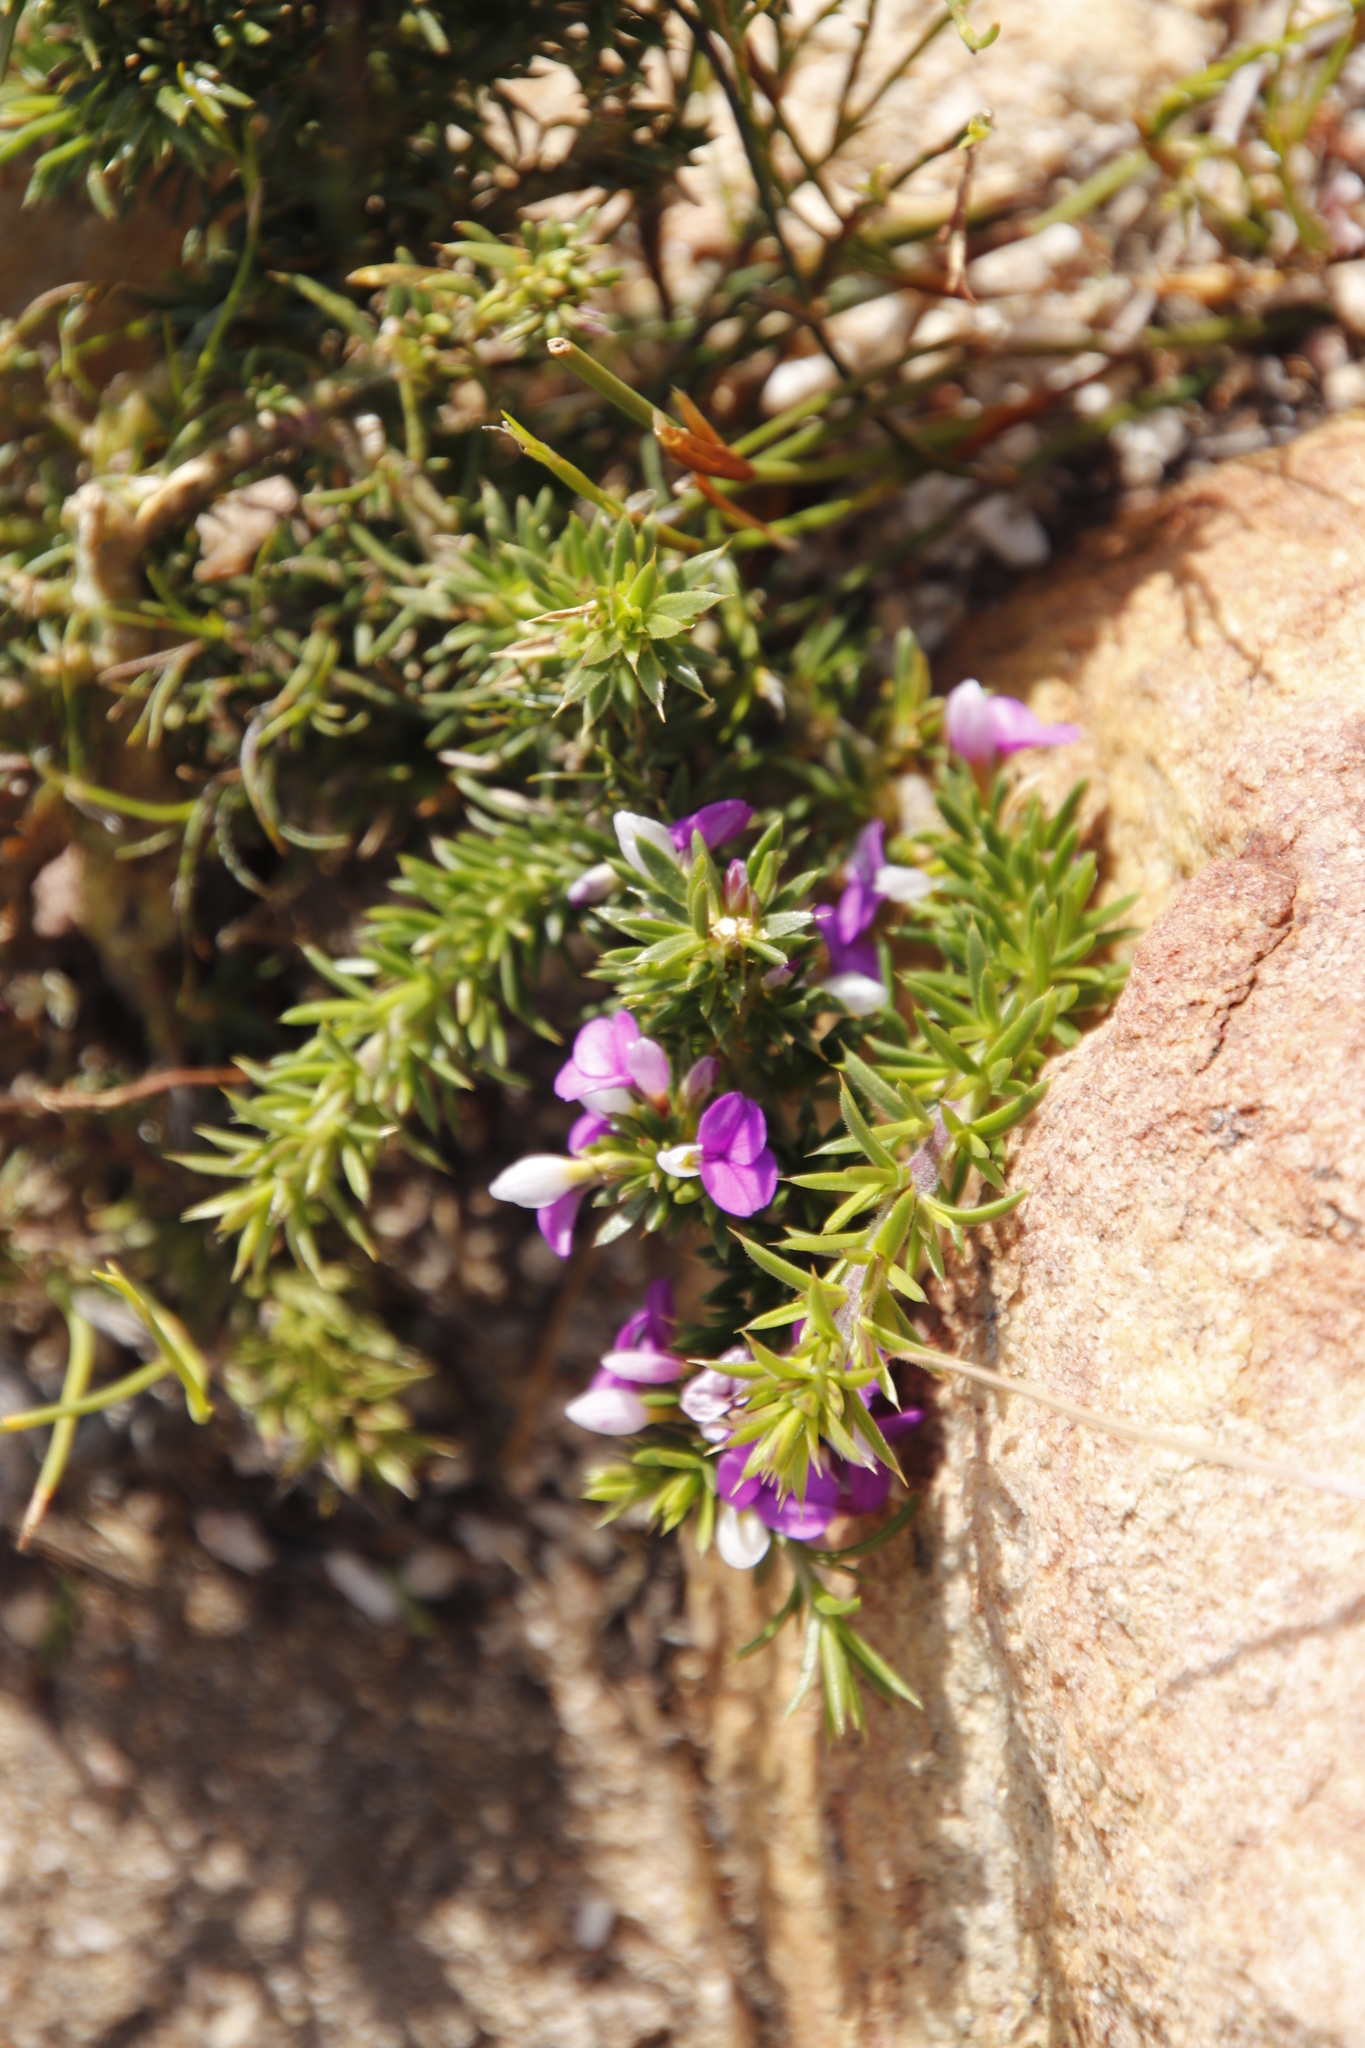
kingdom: Plantae
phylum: Tracheophyta
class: Magnoliopsida
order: Fabales
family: Polygalaceae
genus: Muraltia
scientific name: Muraltia heisteria
